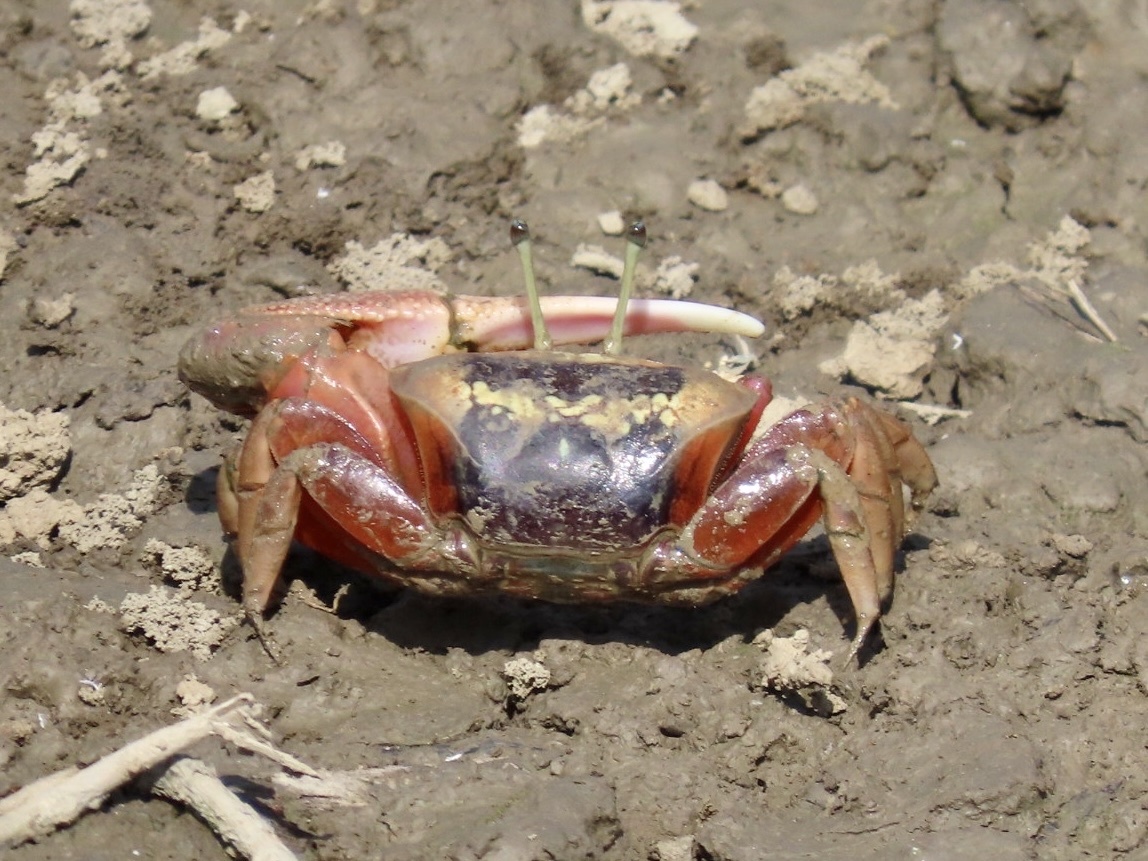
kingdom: Animalia
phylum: Arthropoda
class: Malacostraca
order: Decapoda
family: Ocypodidae
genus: Tubuca
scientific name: Tubuca arcuata
